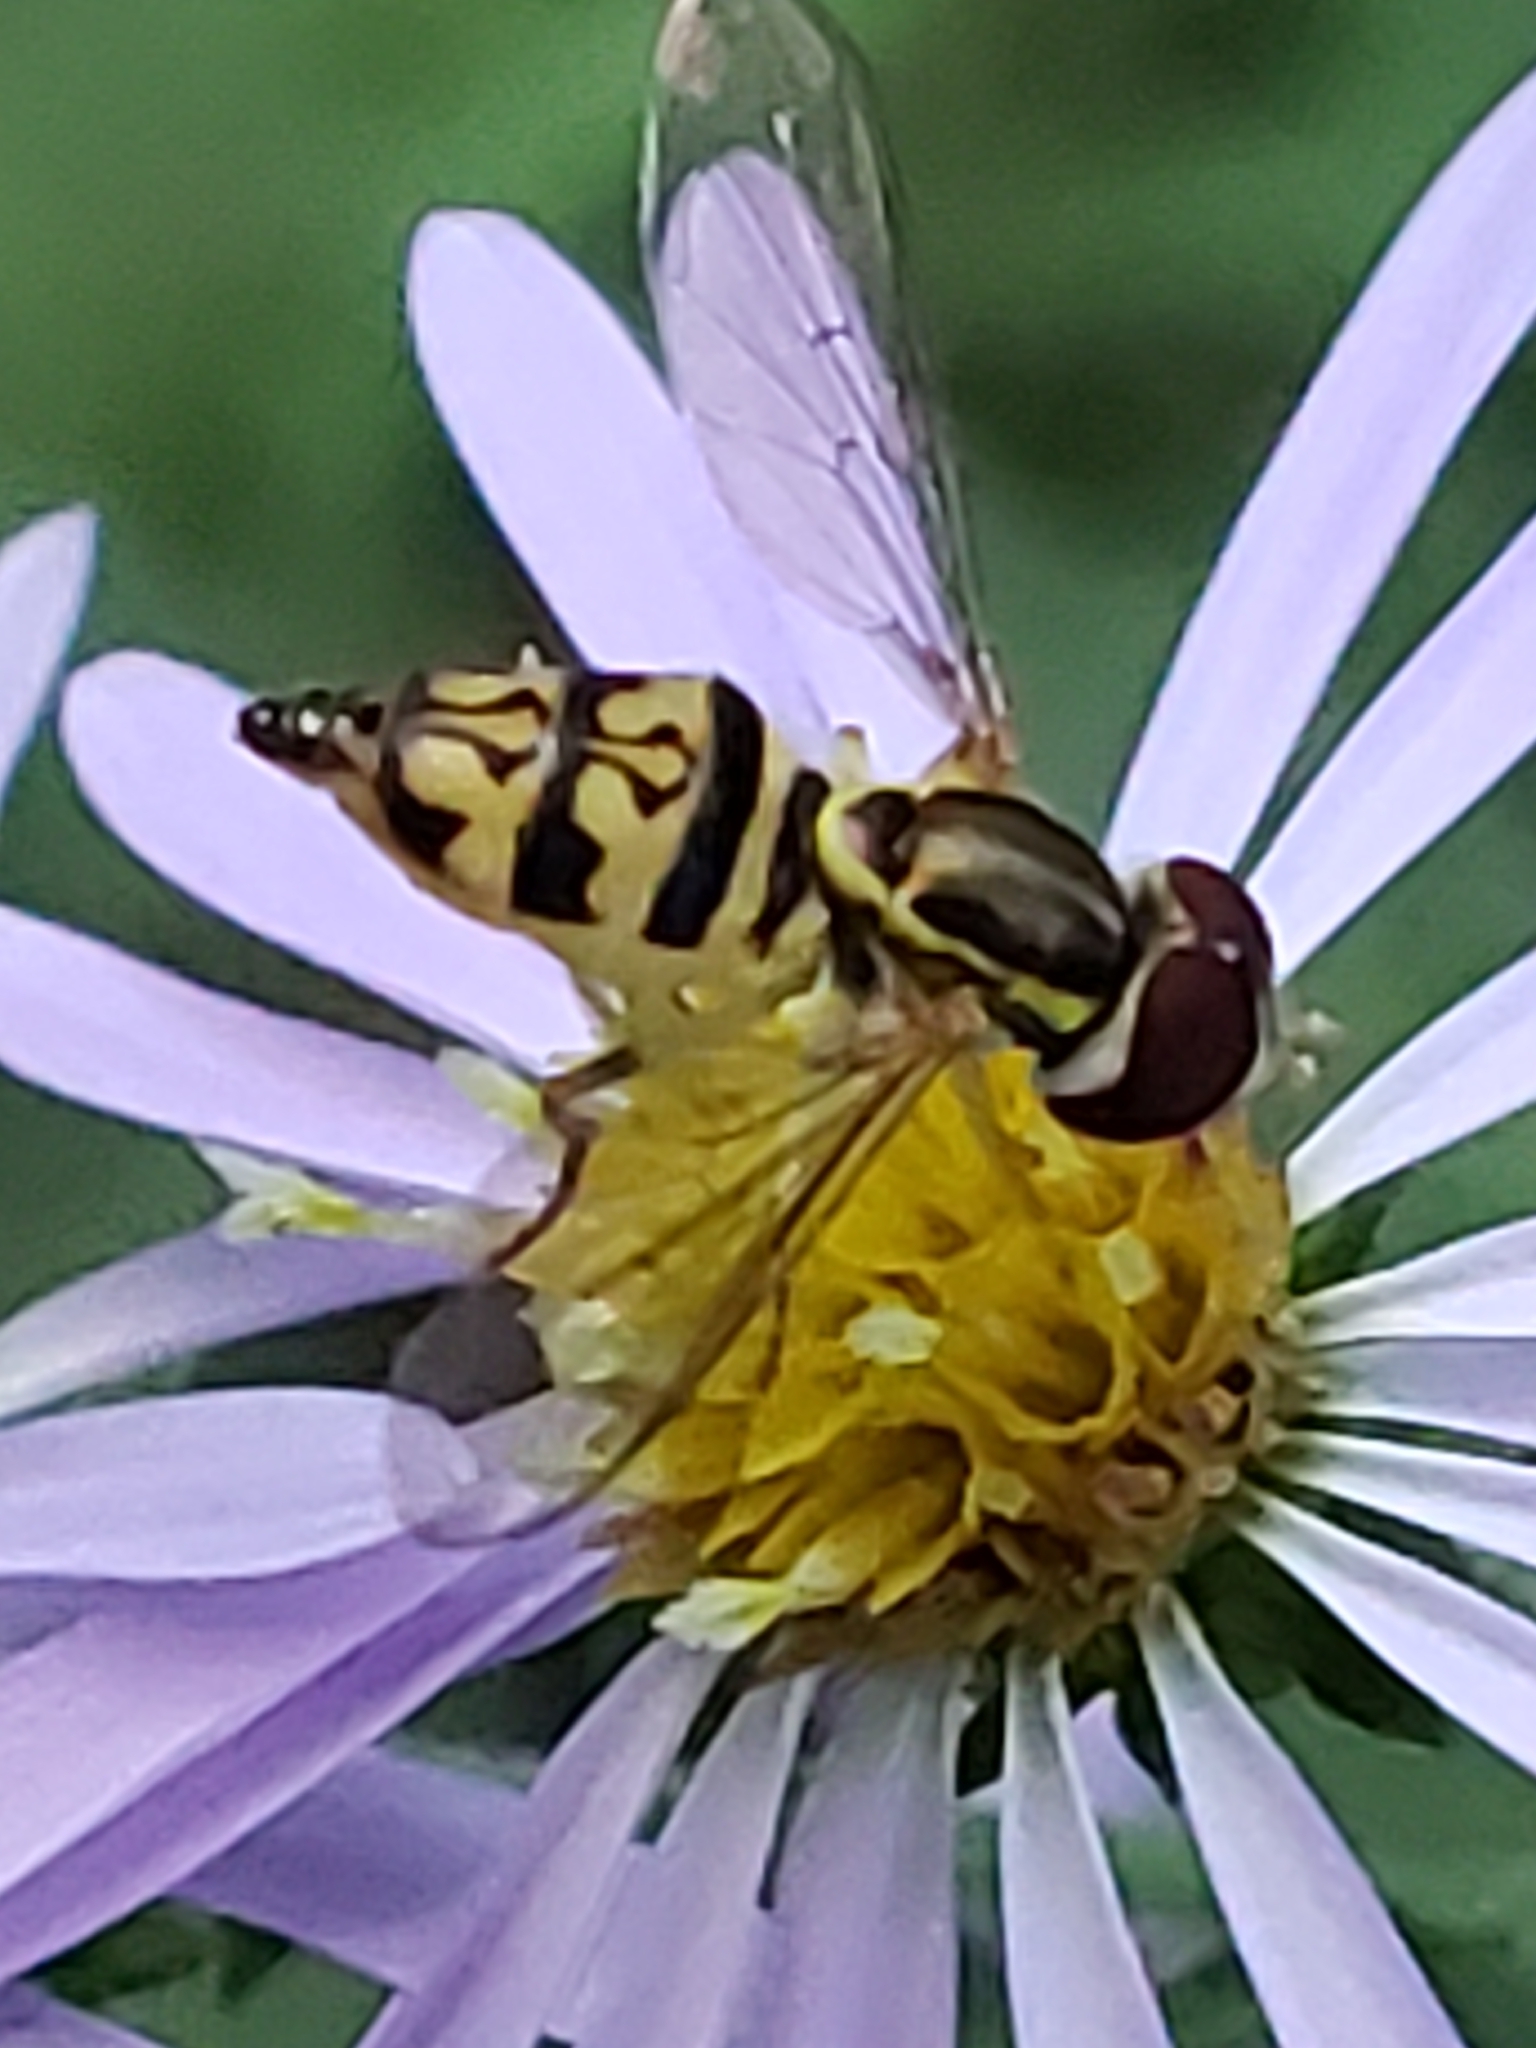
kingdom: Animalia
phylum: Arthropoda
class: Insecta
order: Diptera
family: Syrphidae
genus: Toxomerus
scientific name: Toxomerus geminatus
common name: Eastern calligrapher
